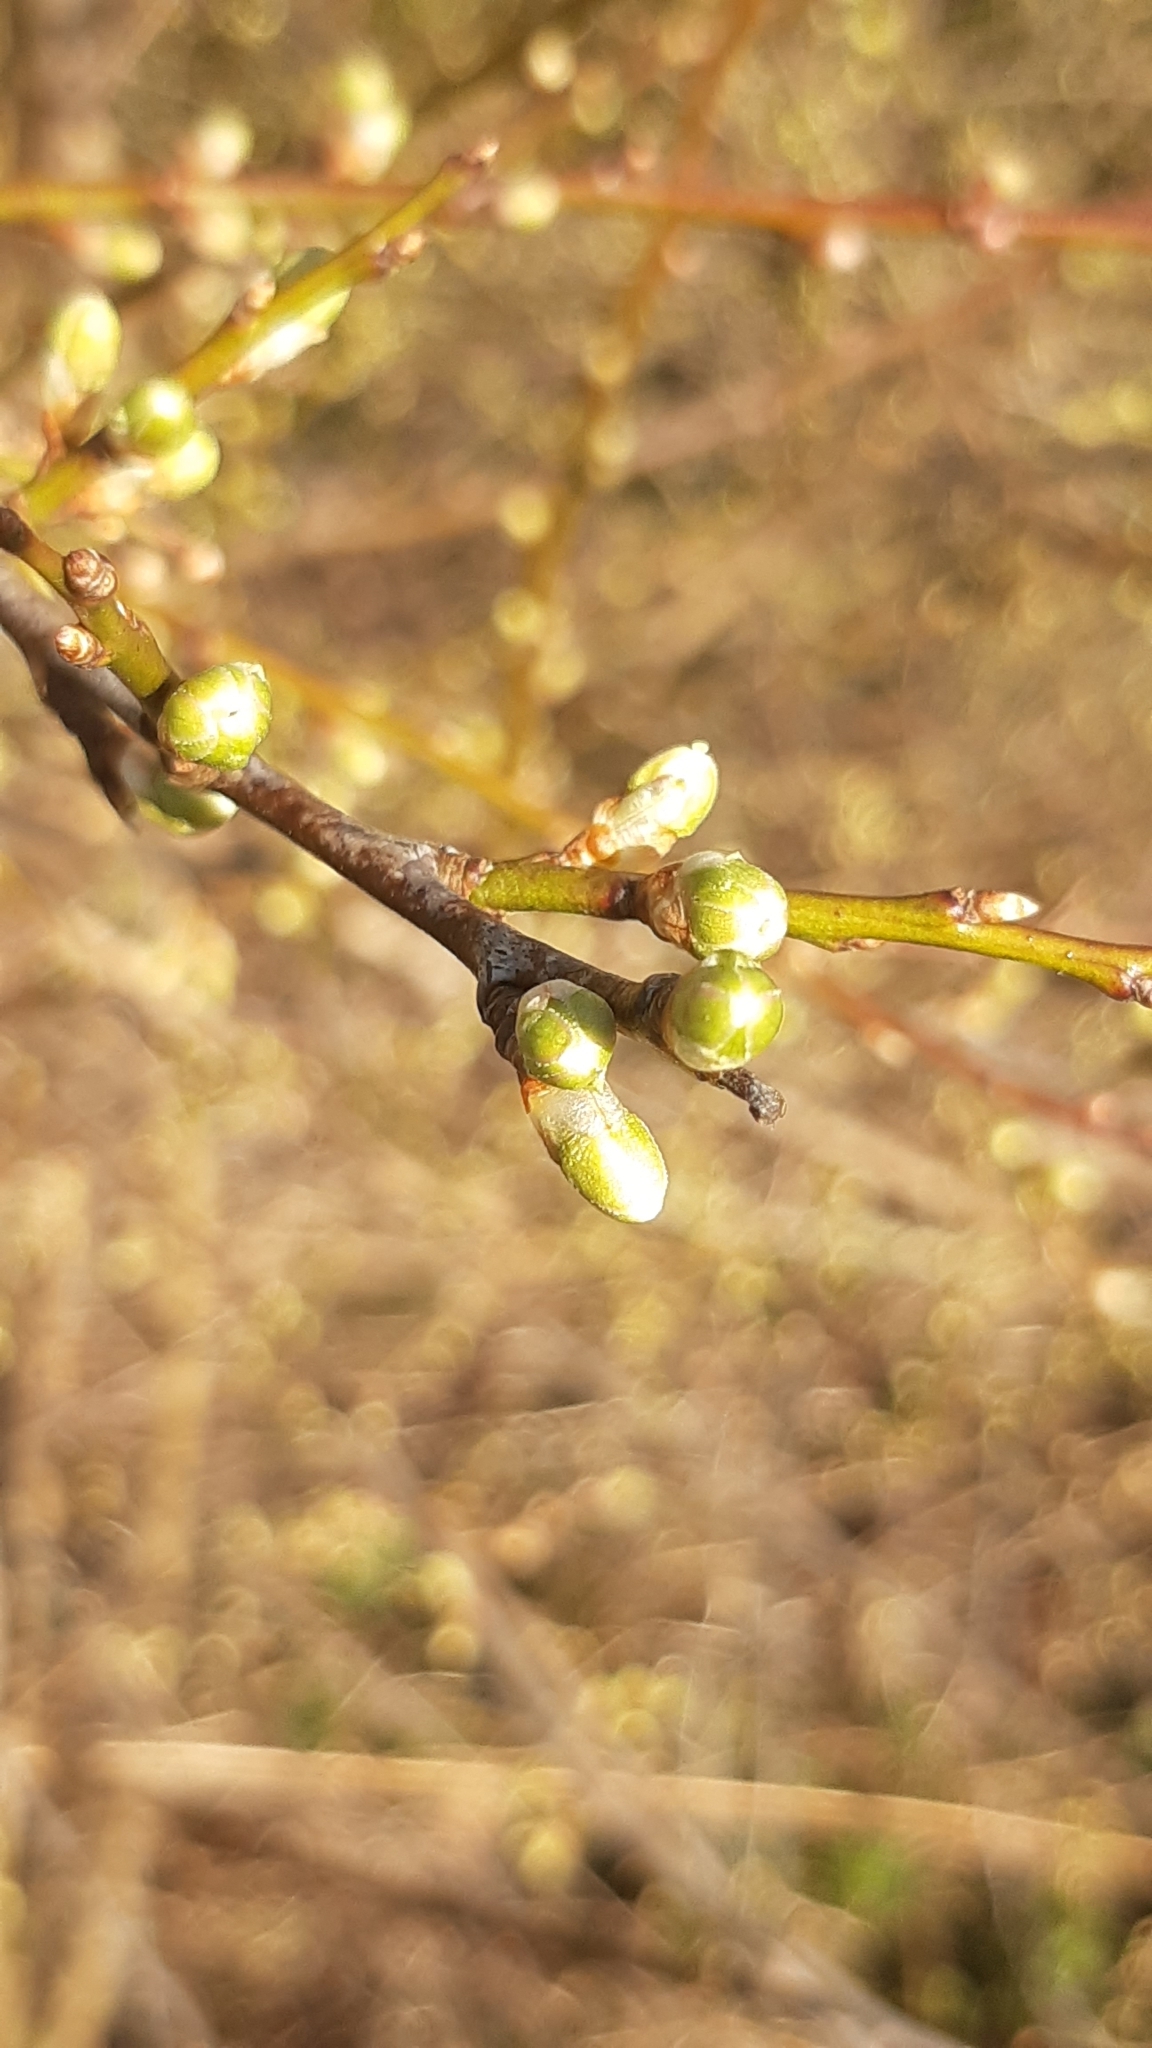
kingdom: Plantae
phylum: Tracheophyta
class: Magnoliopsida
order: Rosales
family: Rosaceae
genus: Prunus
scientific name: Prunus cerasifera
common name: Cherry plum
